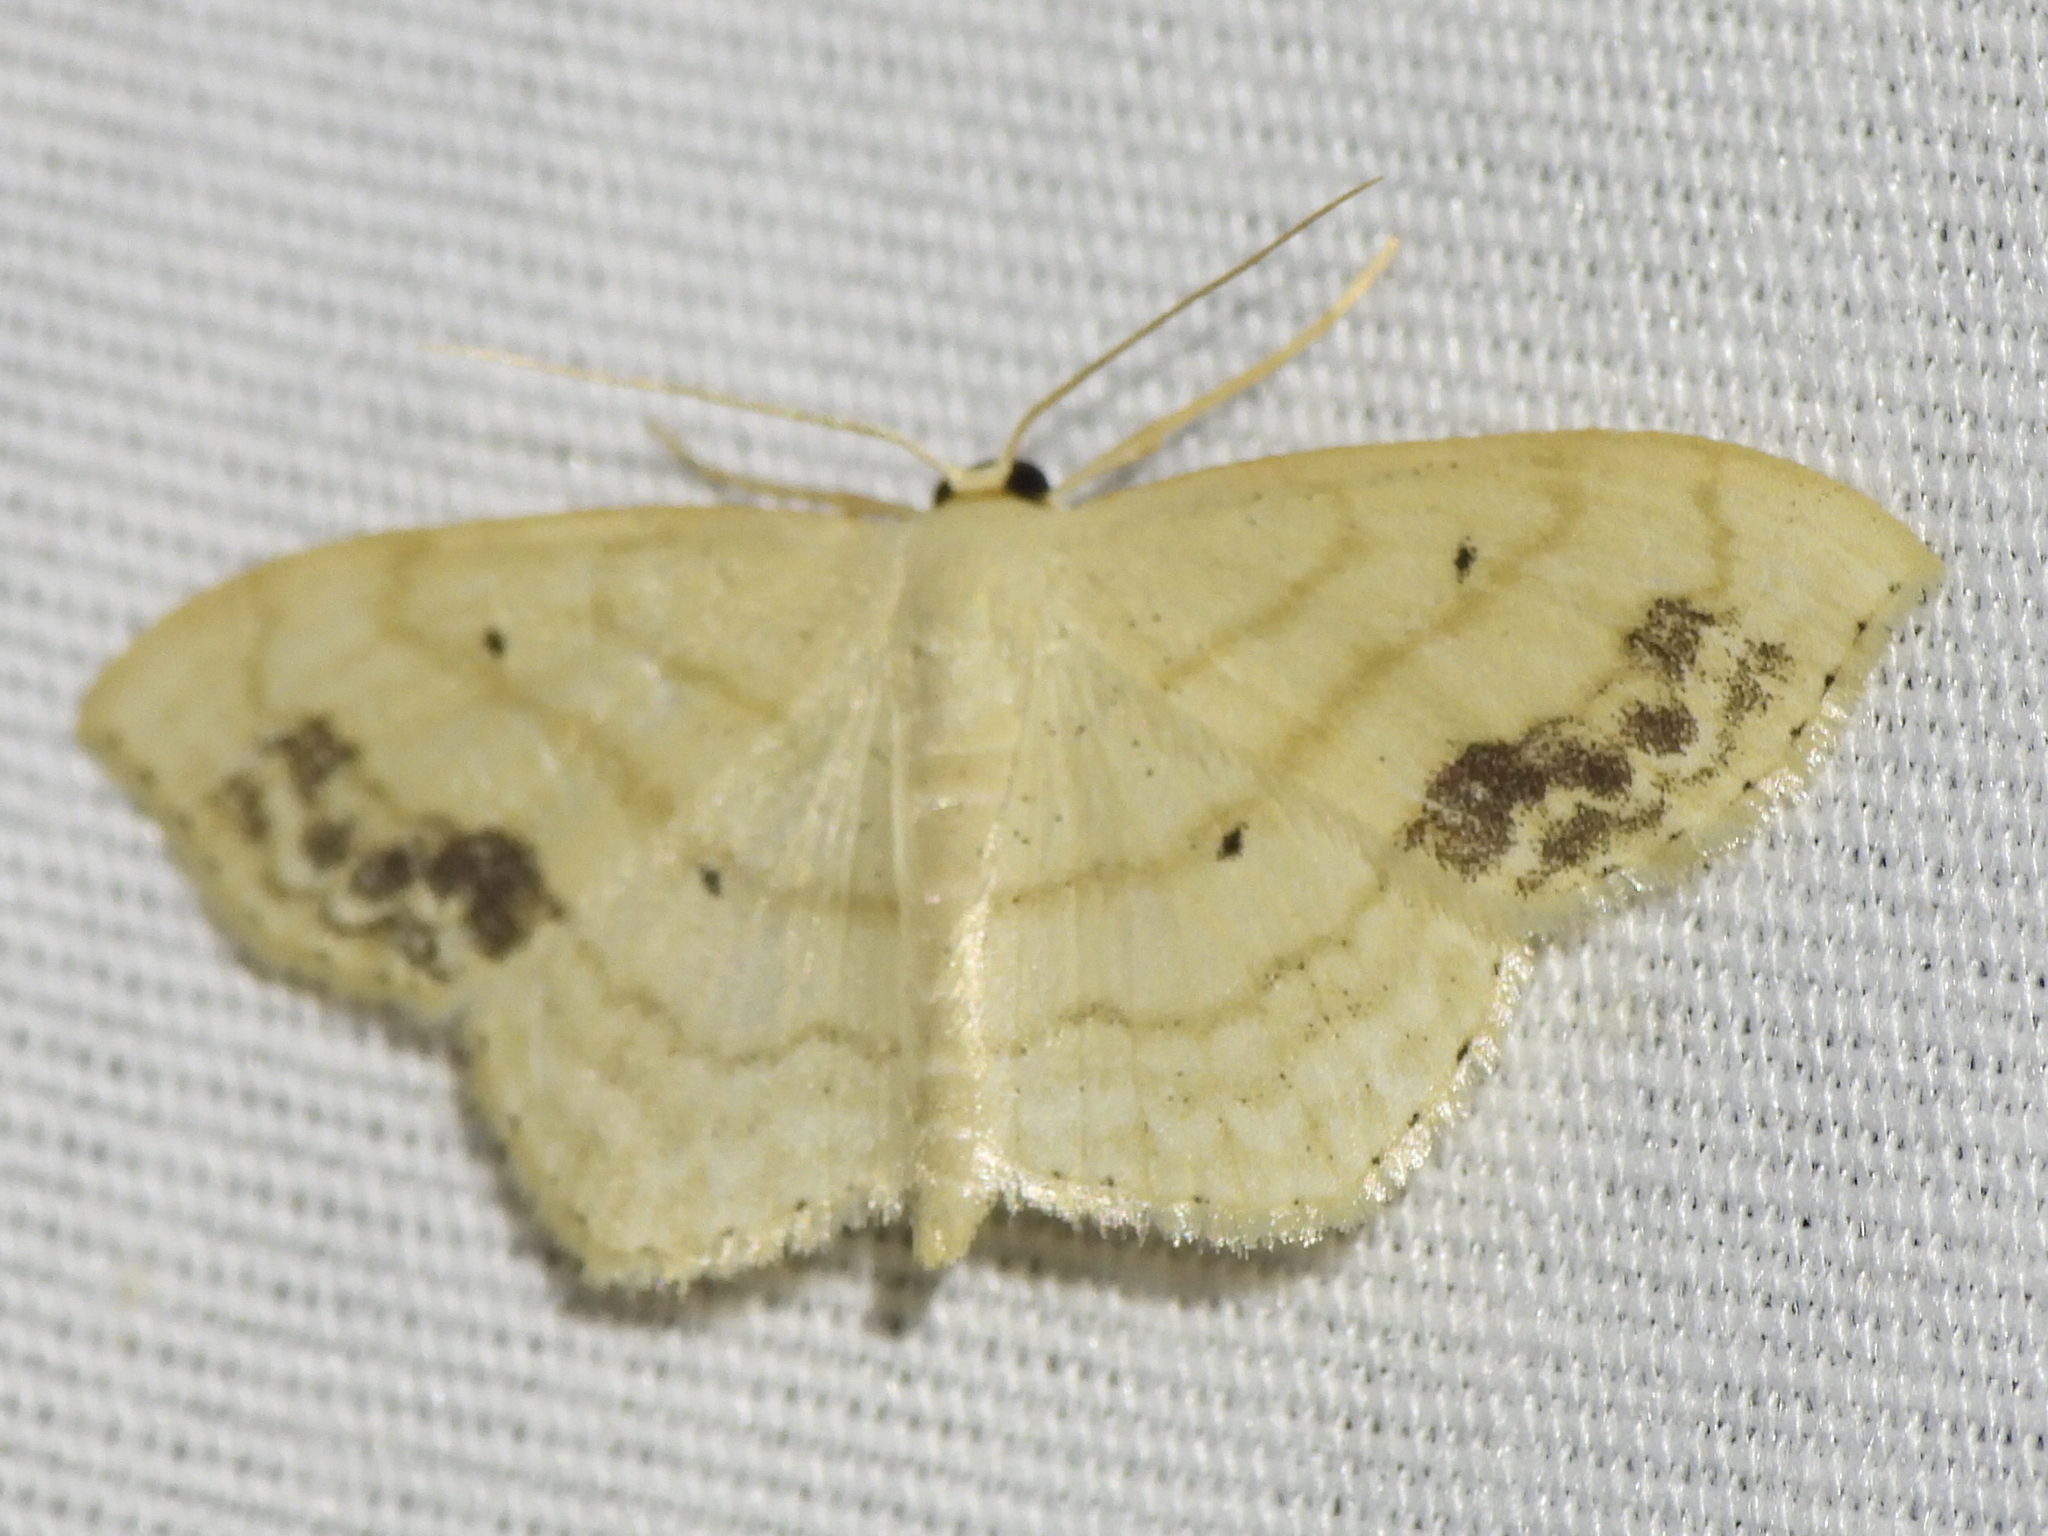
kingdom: Animalia
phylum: Arthropoda
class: Insecta
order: Lepidoptera
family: Geometridae
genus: Scopula
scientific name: Scopula limboundata
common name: Large lace border
